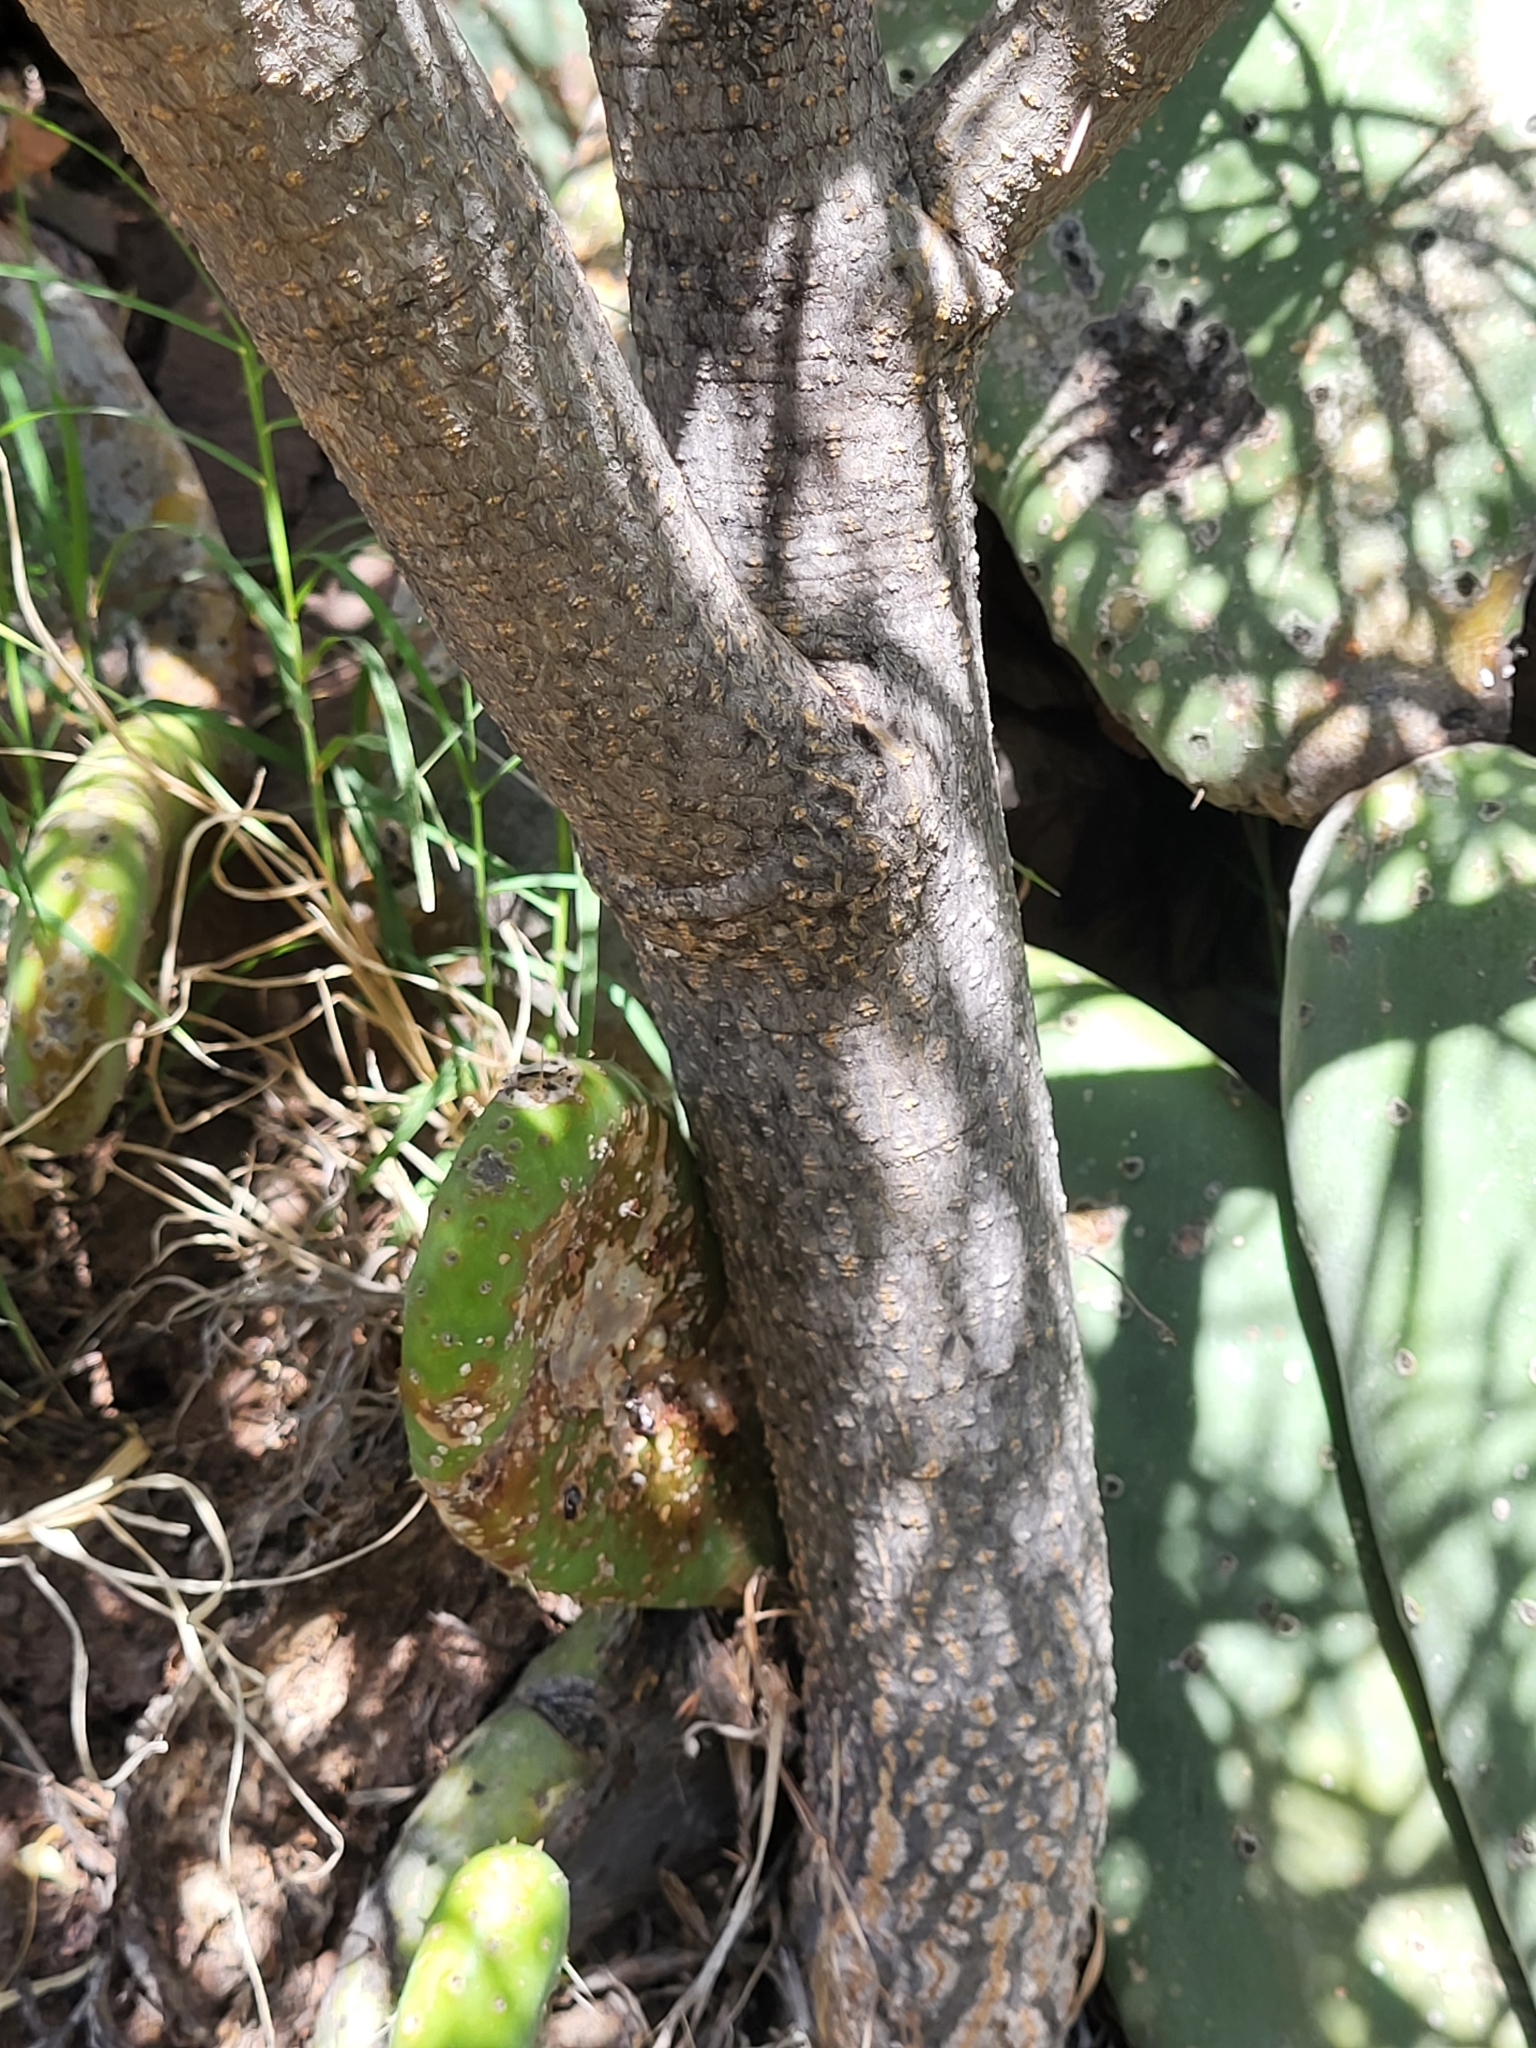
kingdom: Plantae
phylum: Tracheophyta
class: Magnoliopsida
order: Malpighiales
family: Euphorbiaceae
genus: Euphorbia
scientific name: Euphorbia lamarckii
